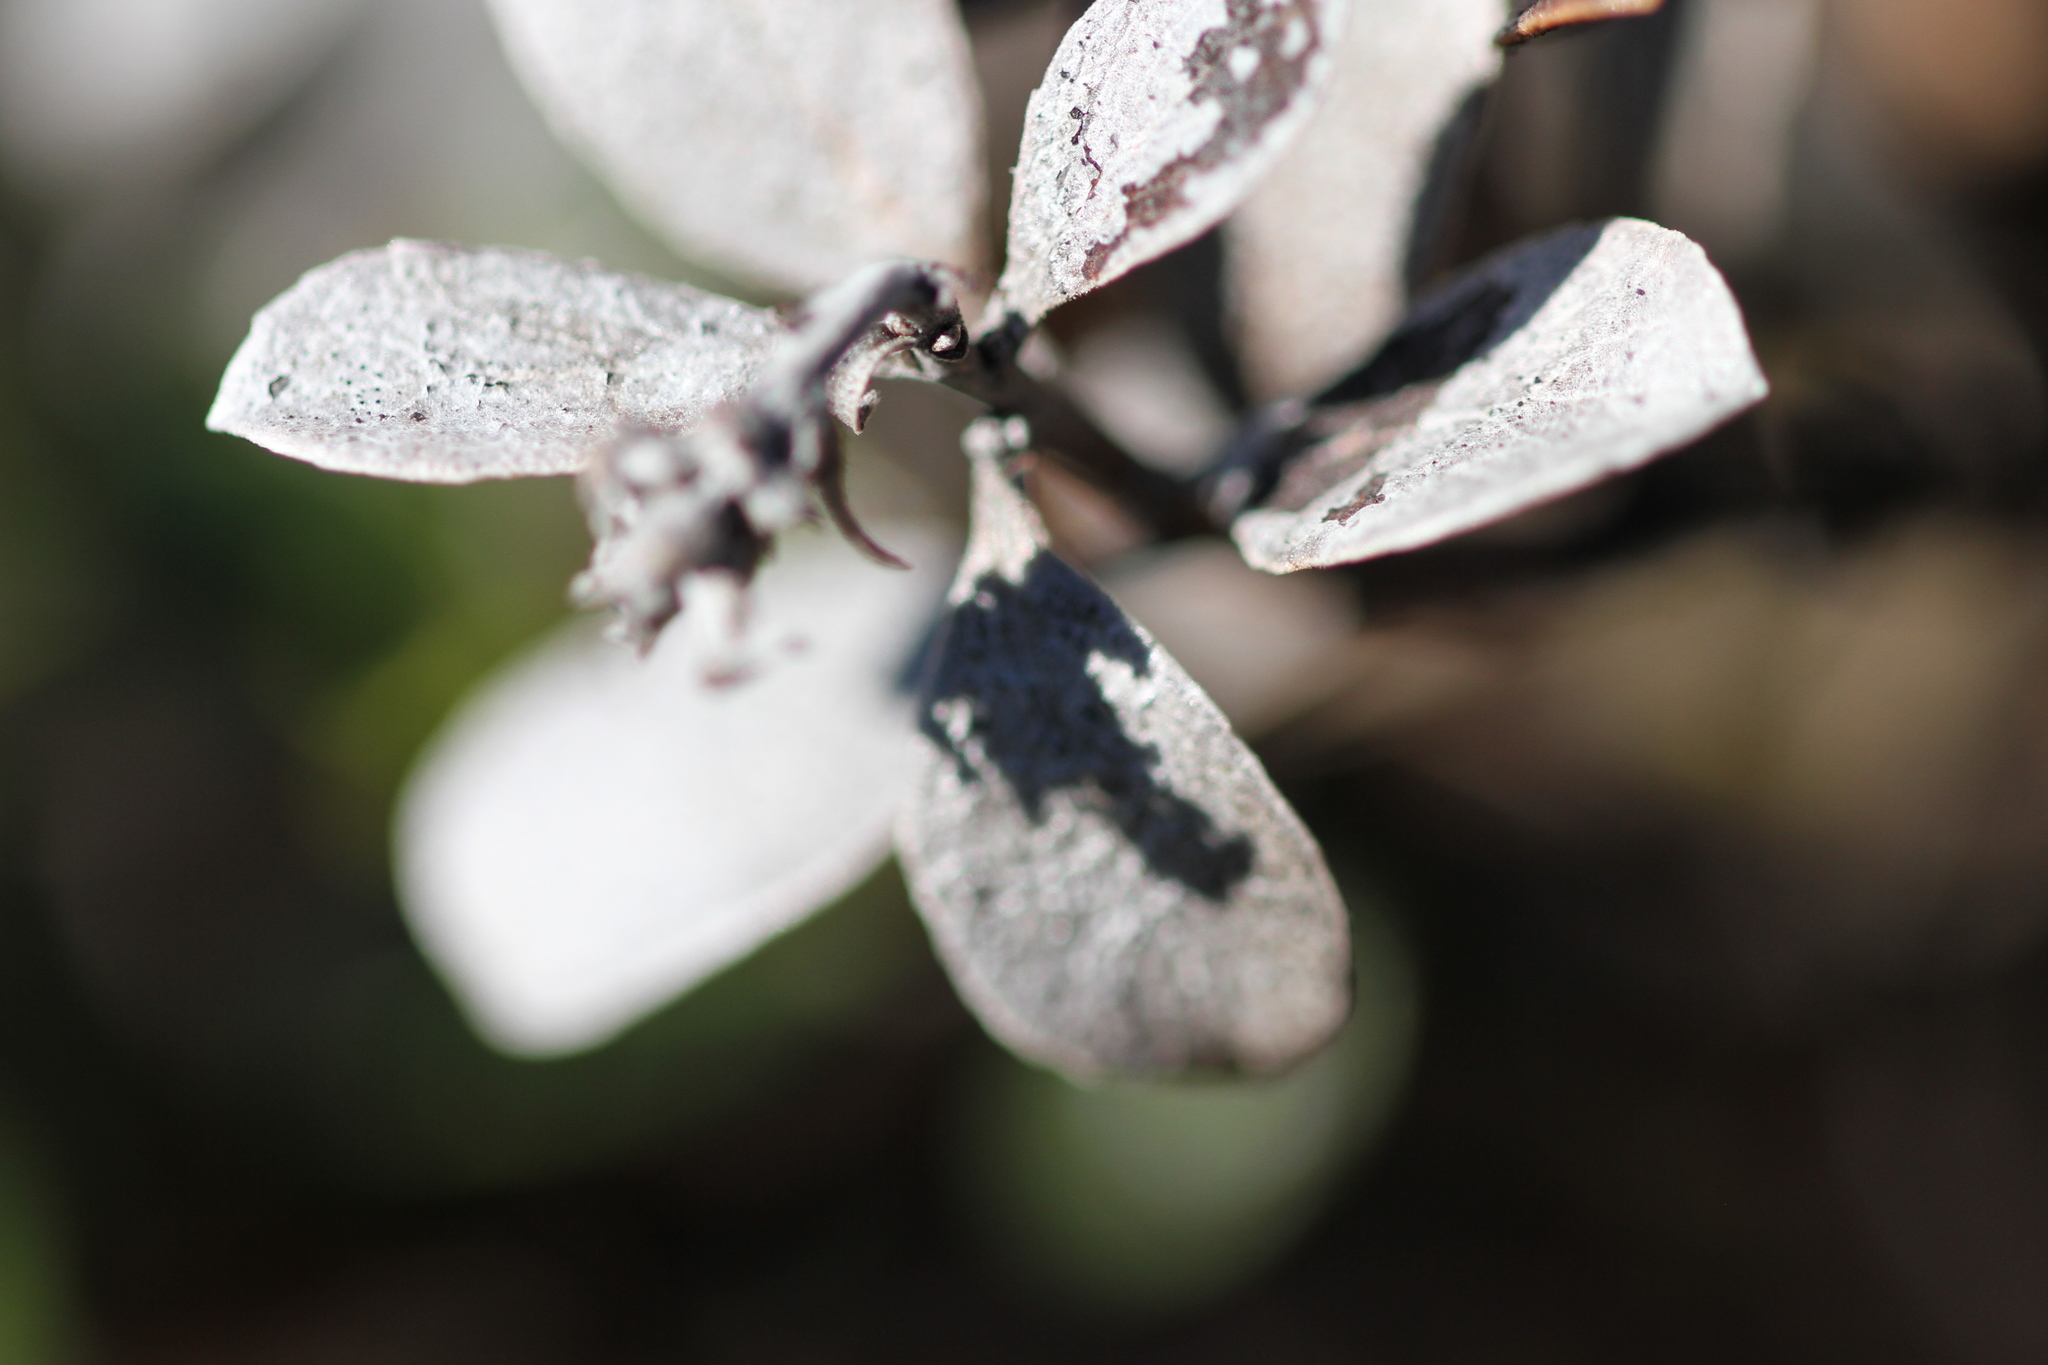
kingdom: Plantae
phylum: Tracheophyta
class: Magnoliopsida
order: Ericales
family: Ericaceae
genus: Arctostaphylos
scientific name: Arctostaphylos pacifica
